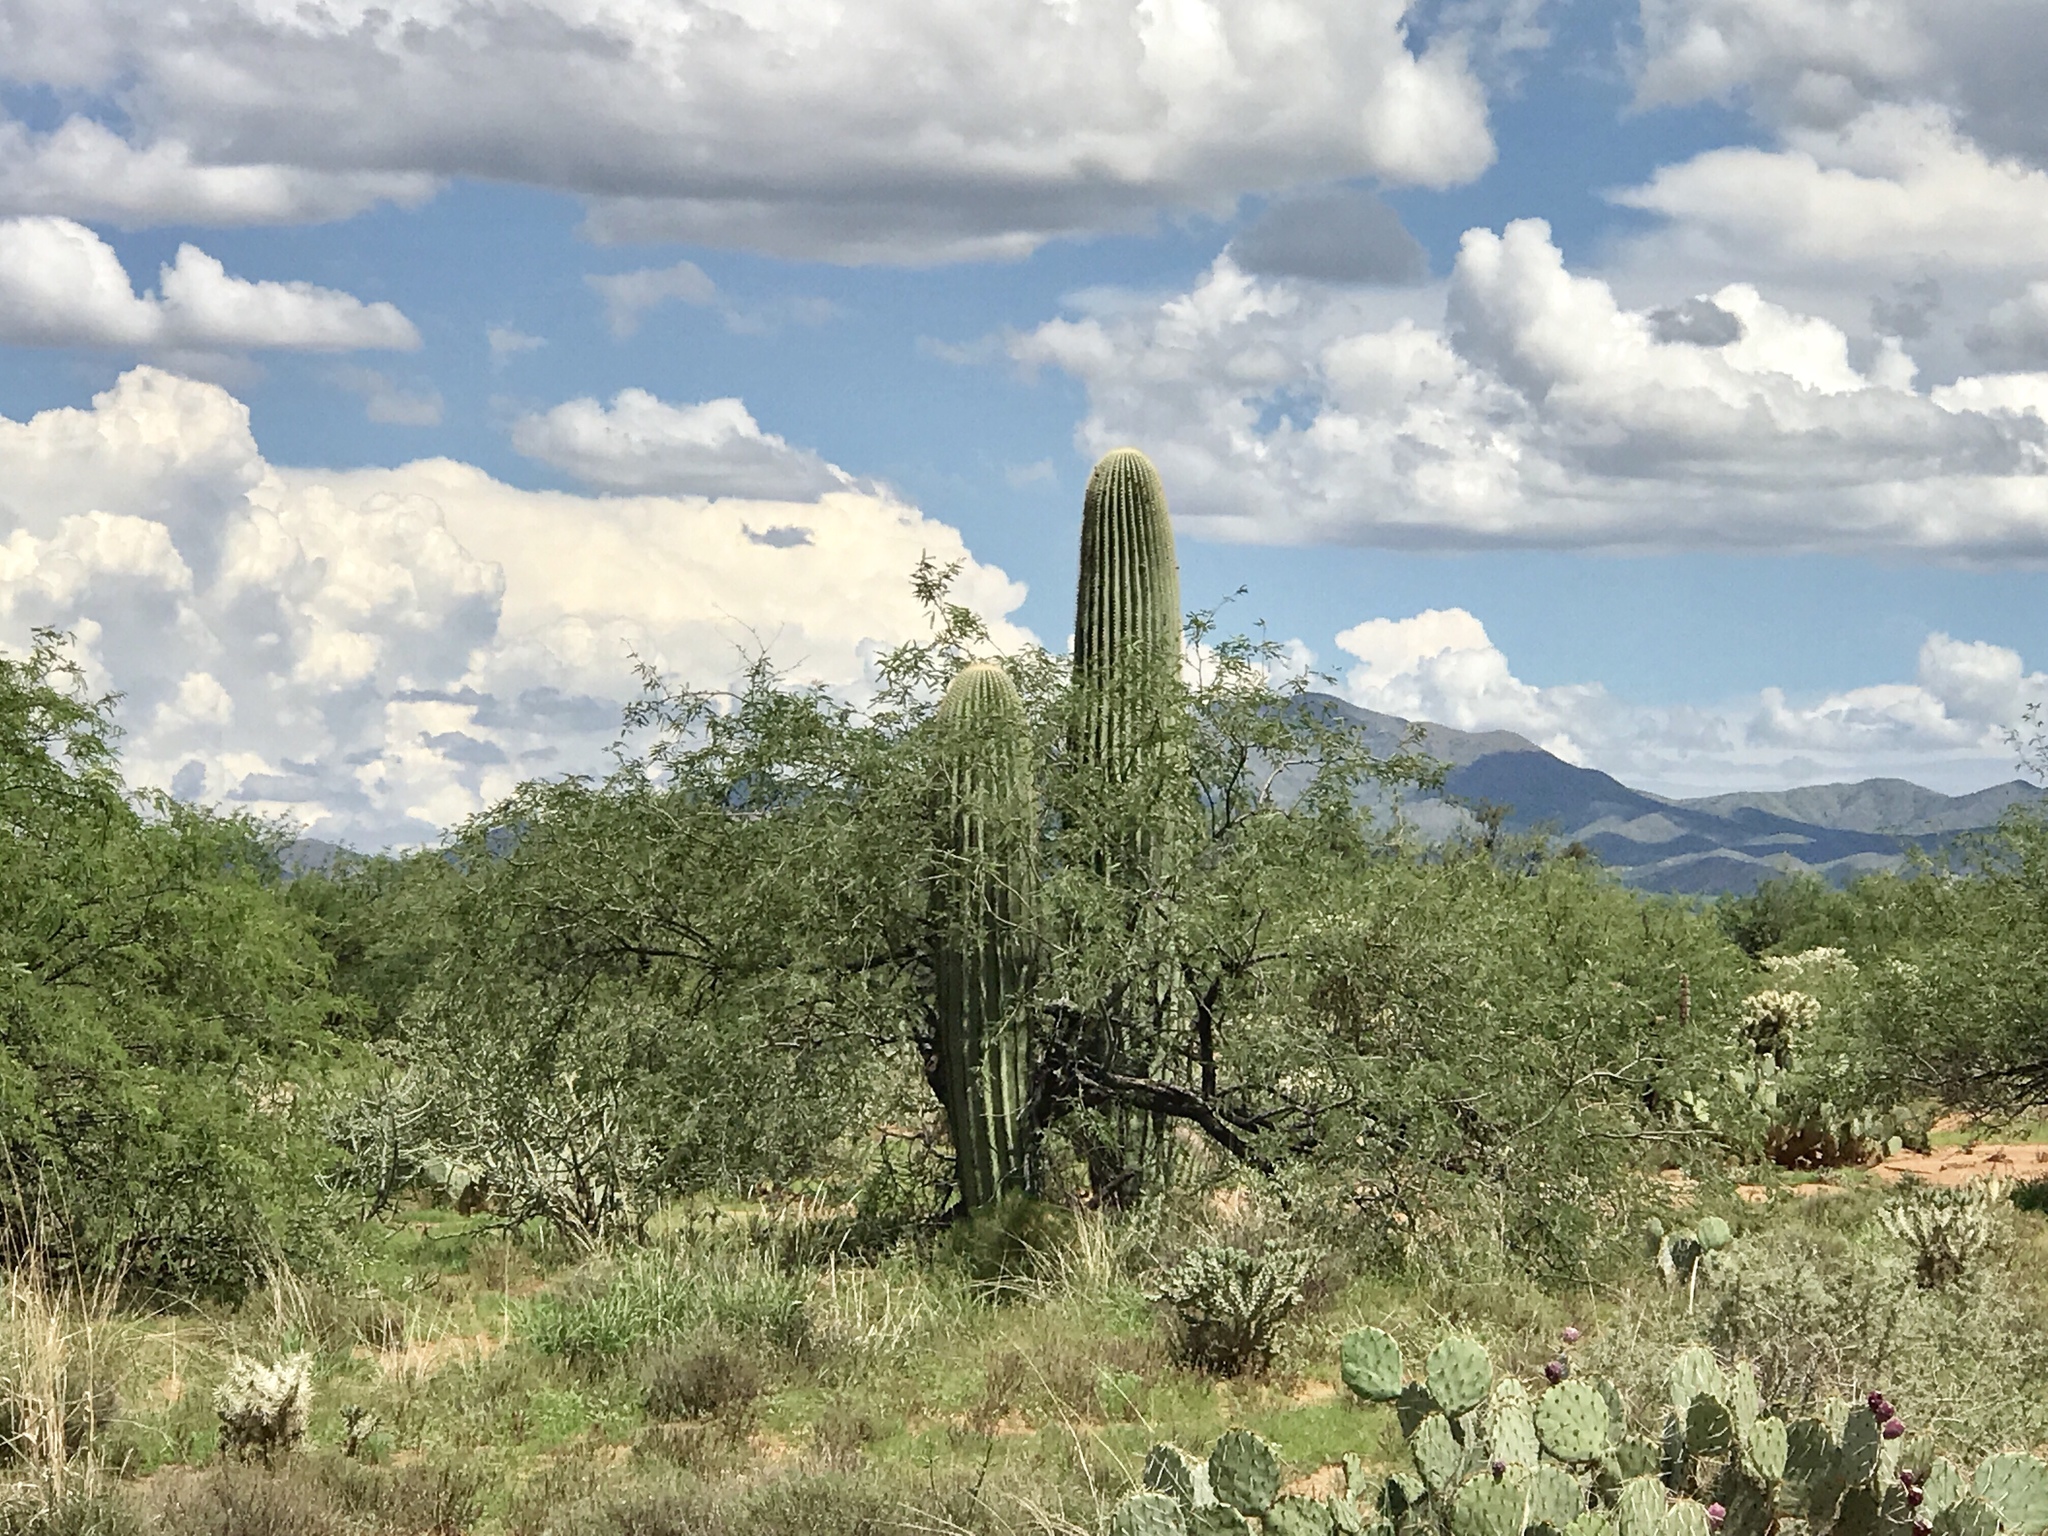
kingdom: Plantae
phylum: Tracheophyta
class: Magnoliopsida
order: Caryophyllales
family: Cactaceae
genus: Carnegiea
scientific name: Carnegiea gigantea
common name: Saguaro
